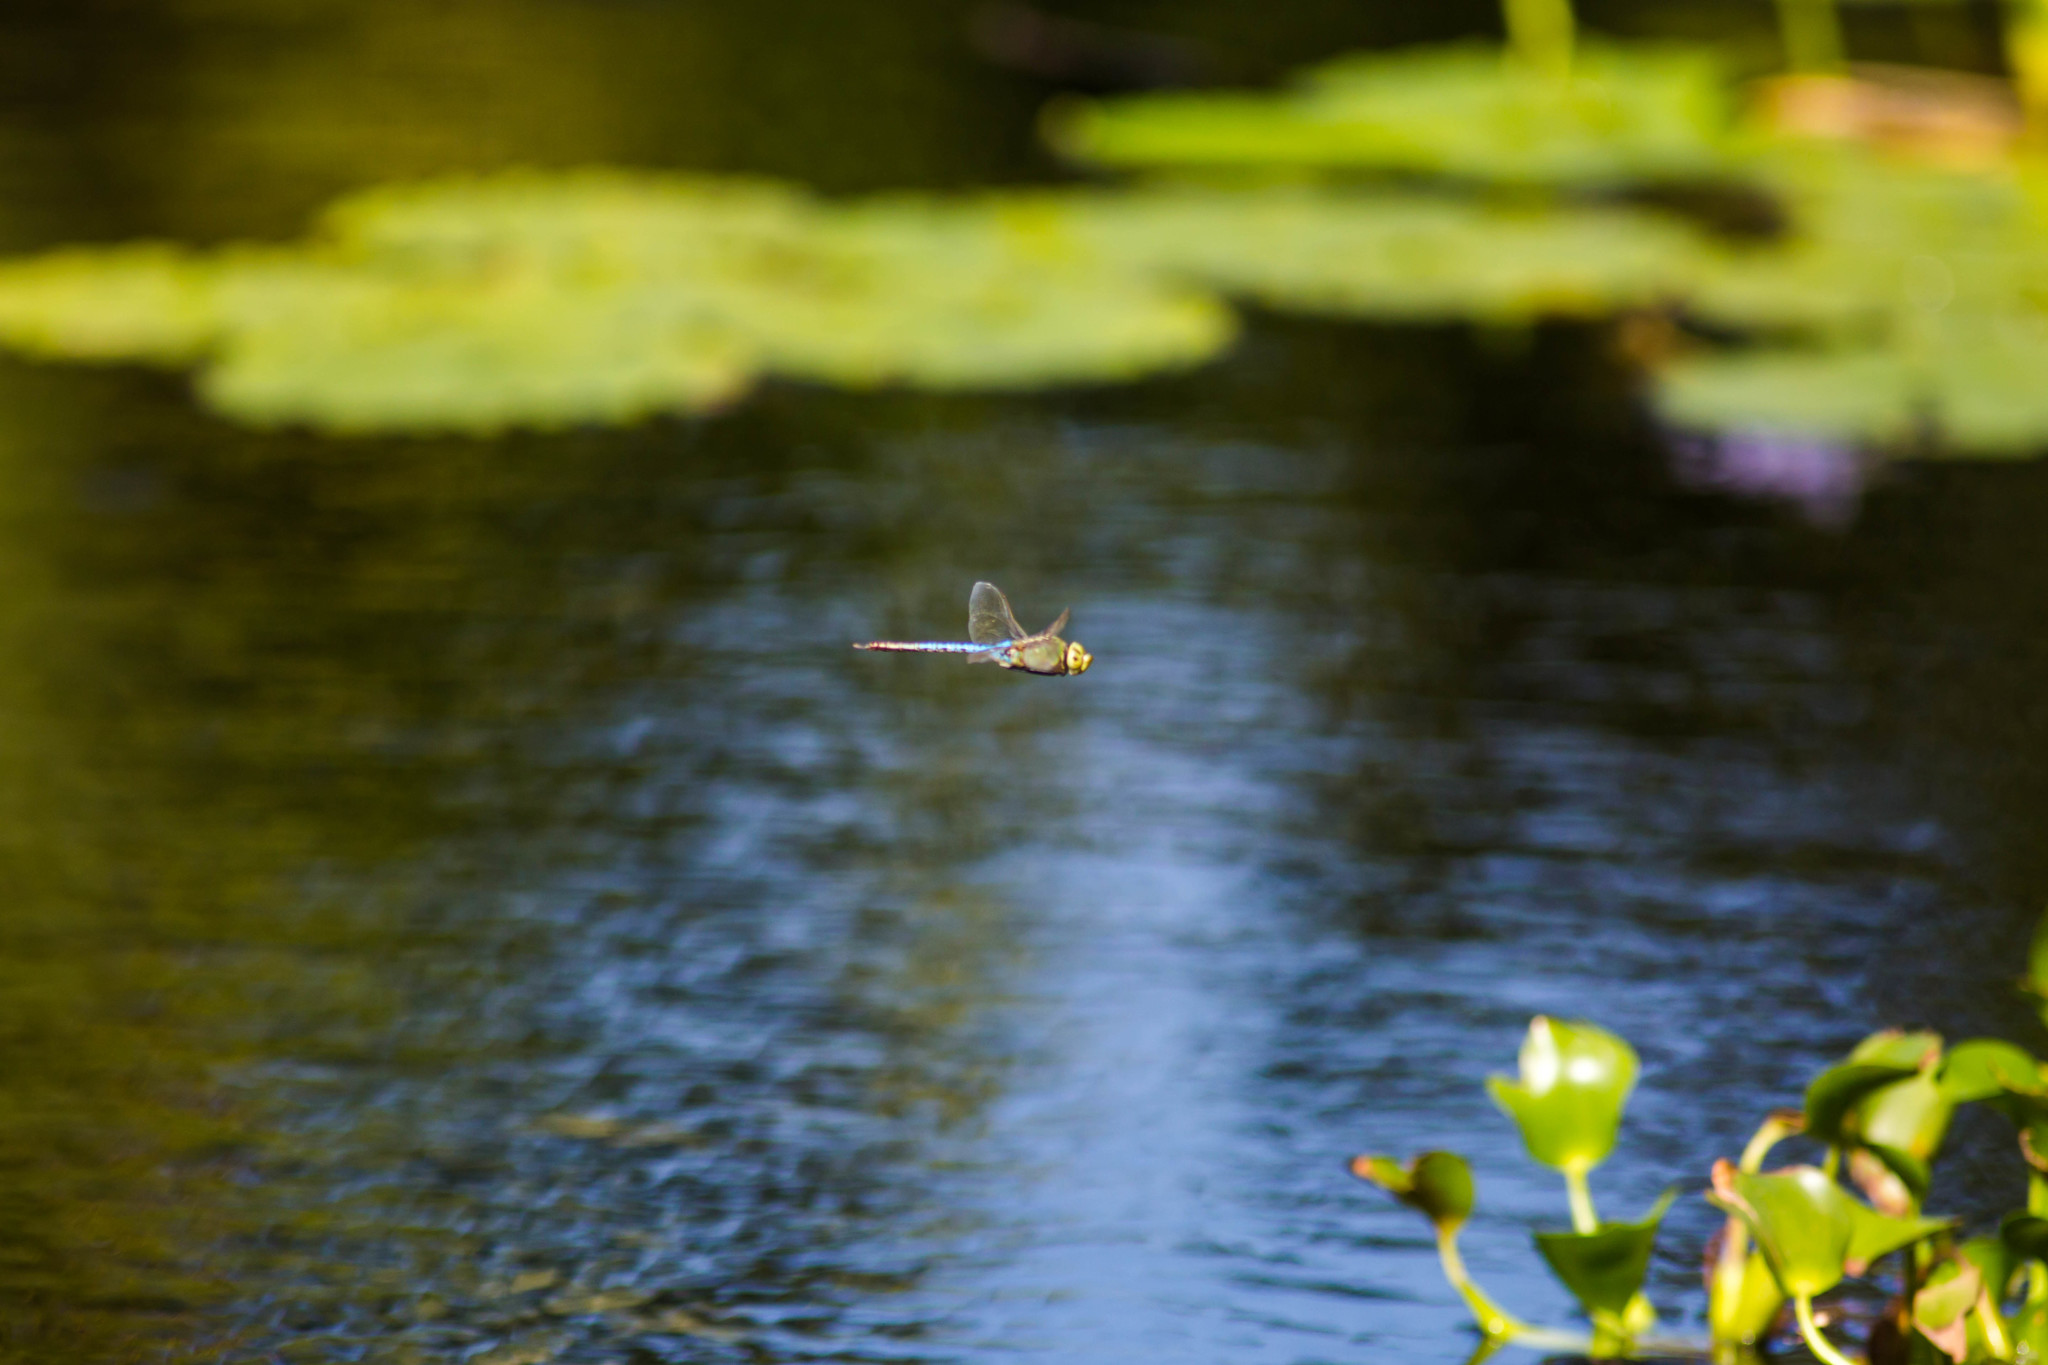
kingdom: Animalia
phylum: Arthropoda
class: Insecta
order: Odonata
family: Aeshnidae
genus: Anax
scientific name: Anax junius
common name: Common green darner
